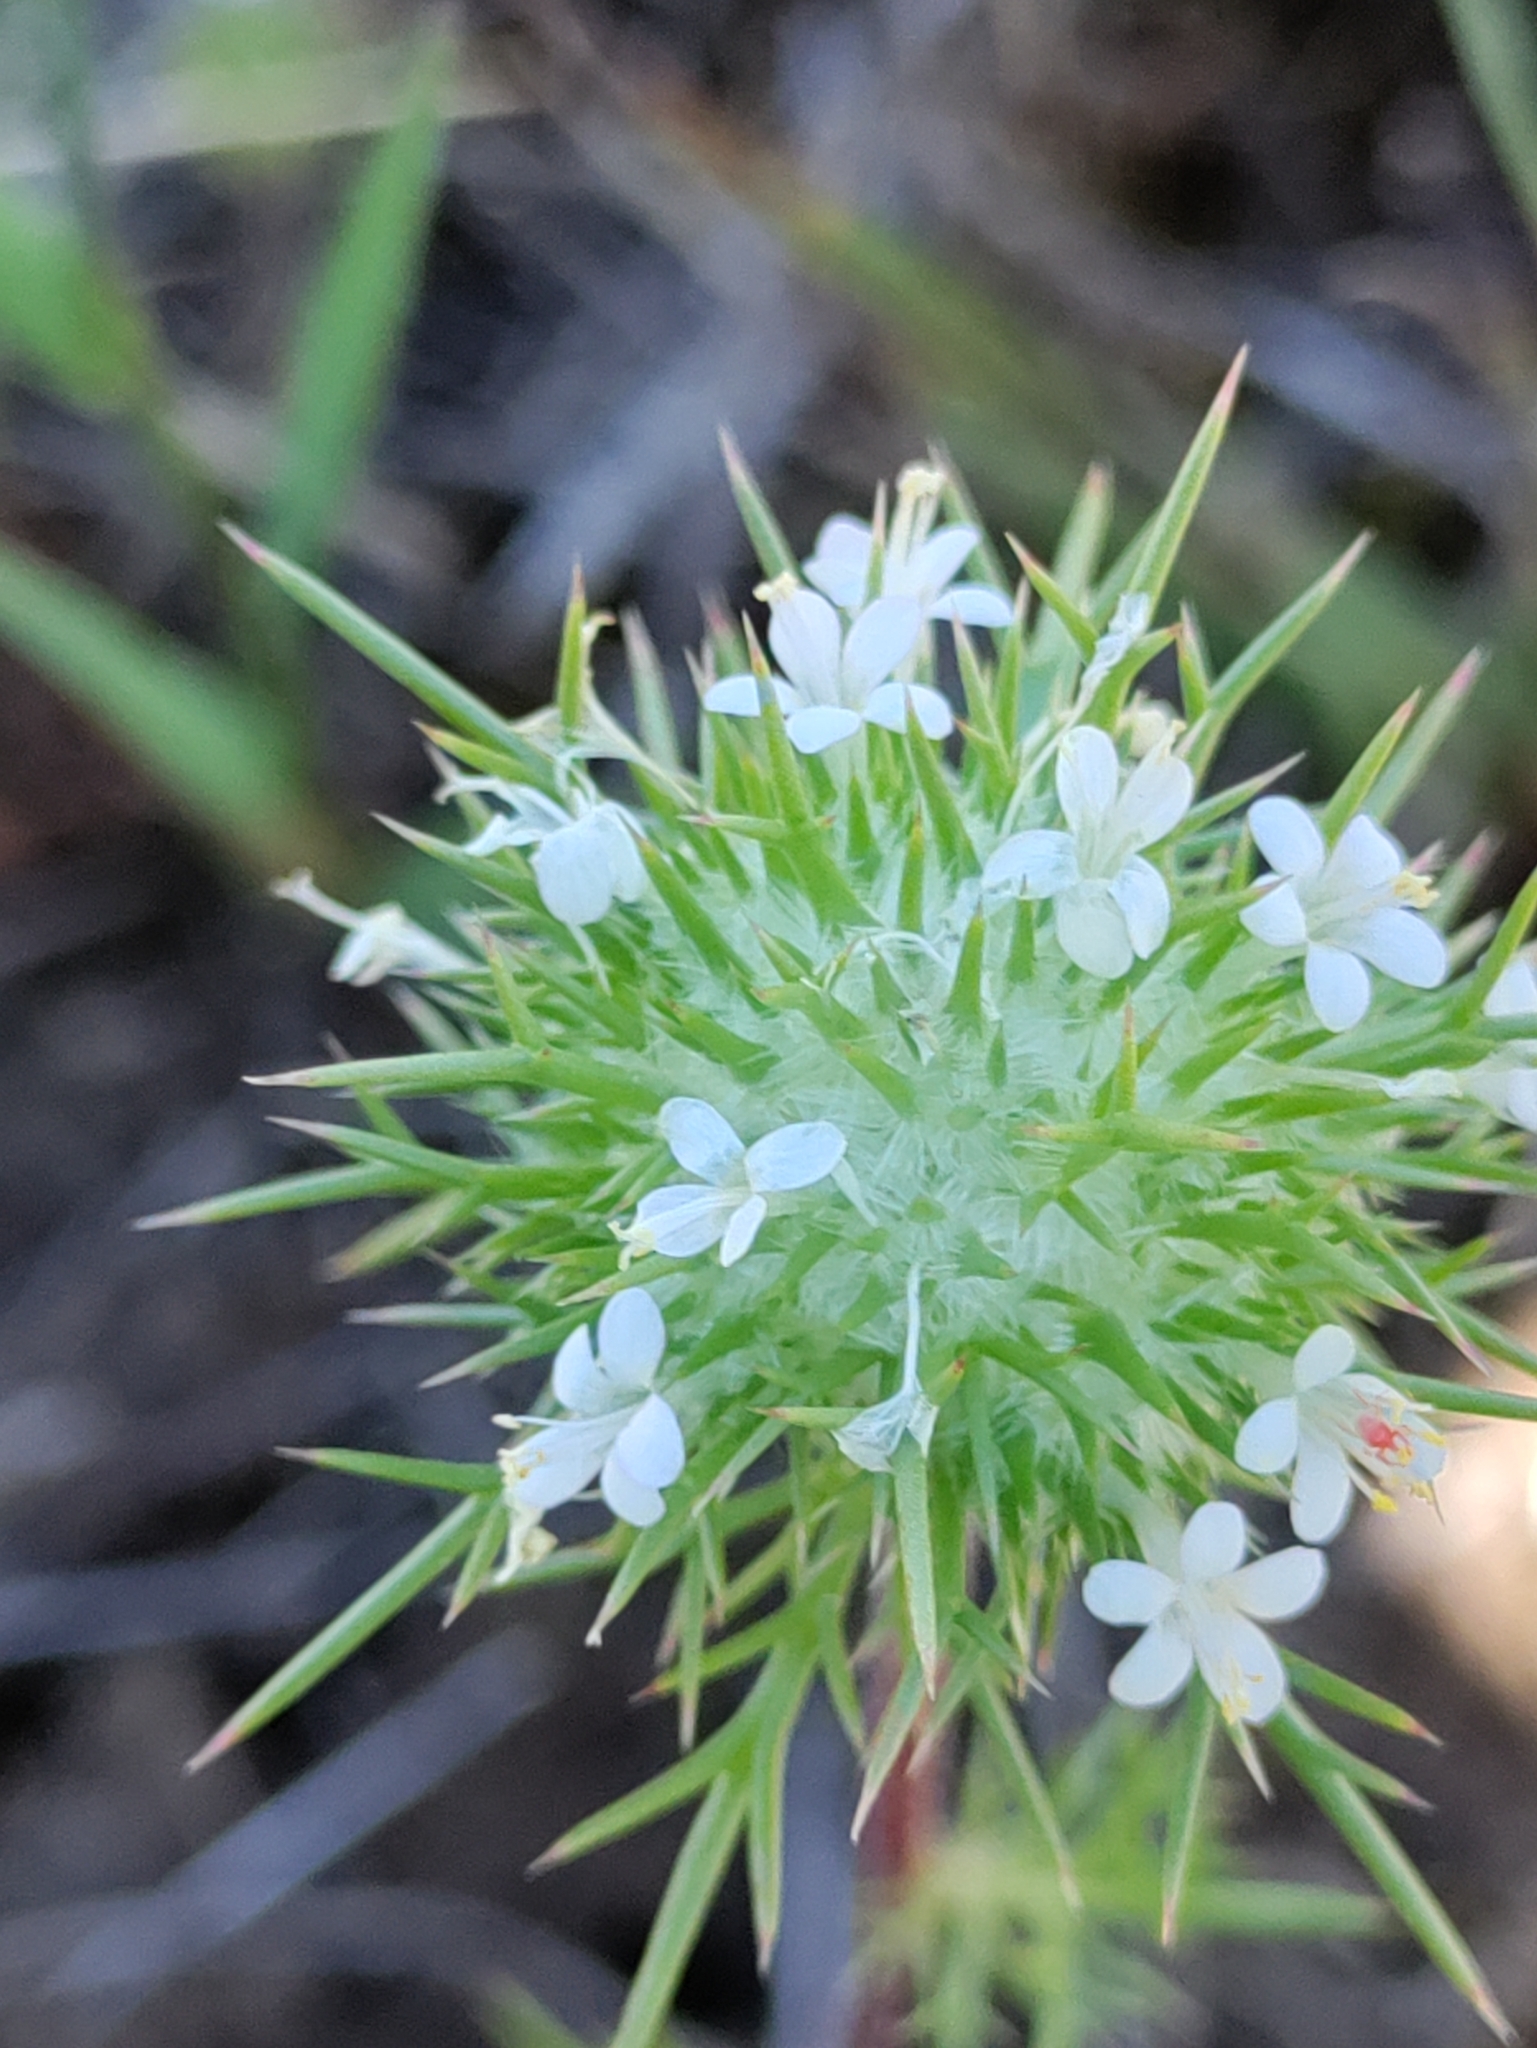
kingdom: Plantae
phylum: Tracheophyta
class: Magnoliopsida
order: Ericales
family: Polemoniaceae
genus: Navarretia
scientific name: Navarretia intertexta
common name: Needle-leaved navarretia
